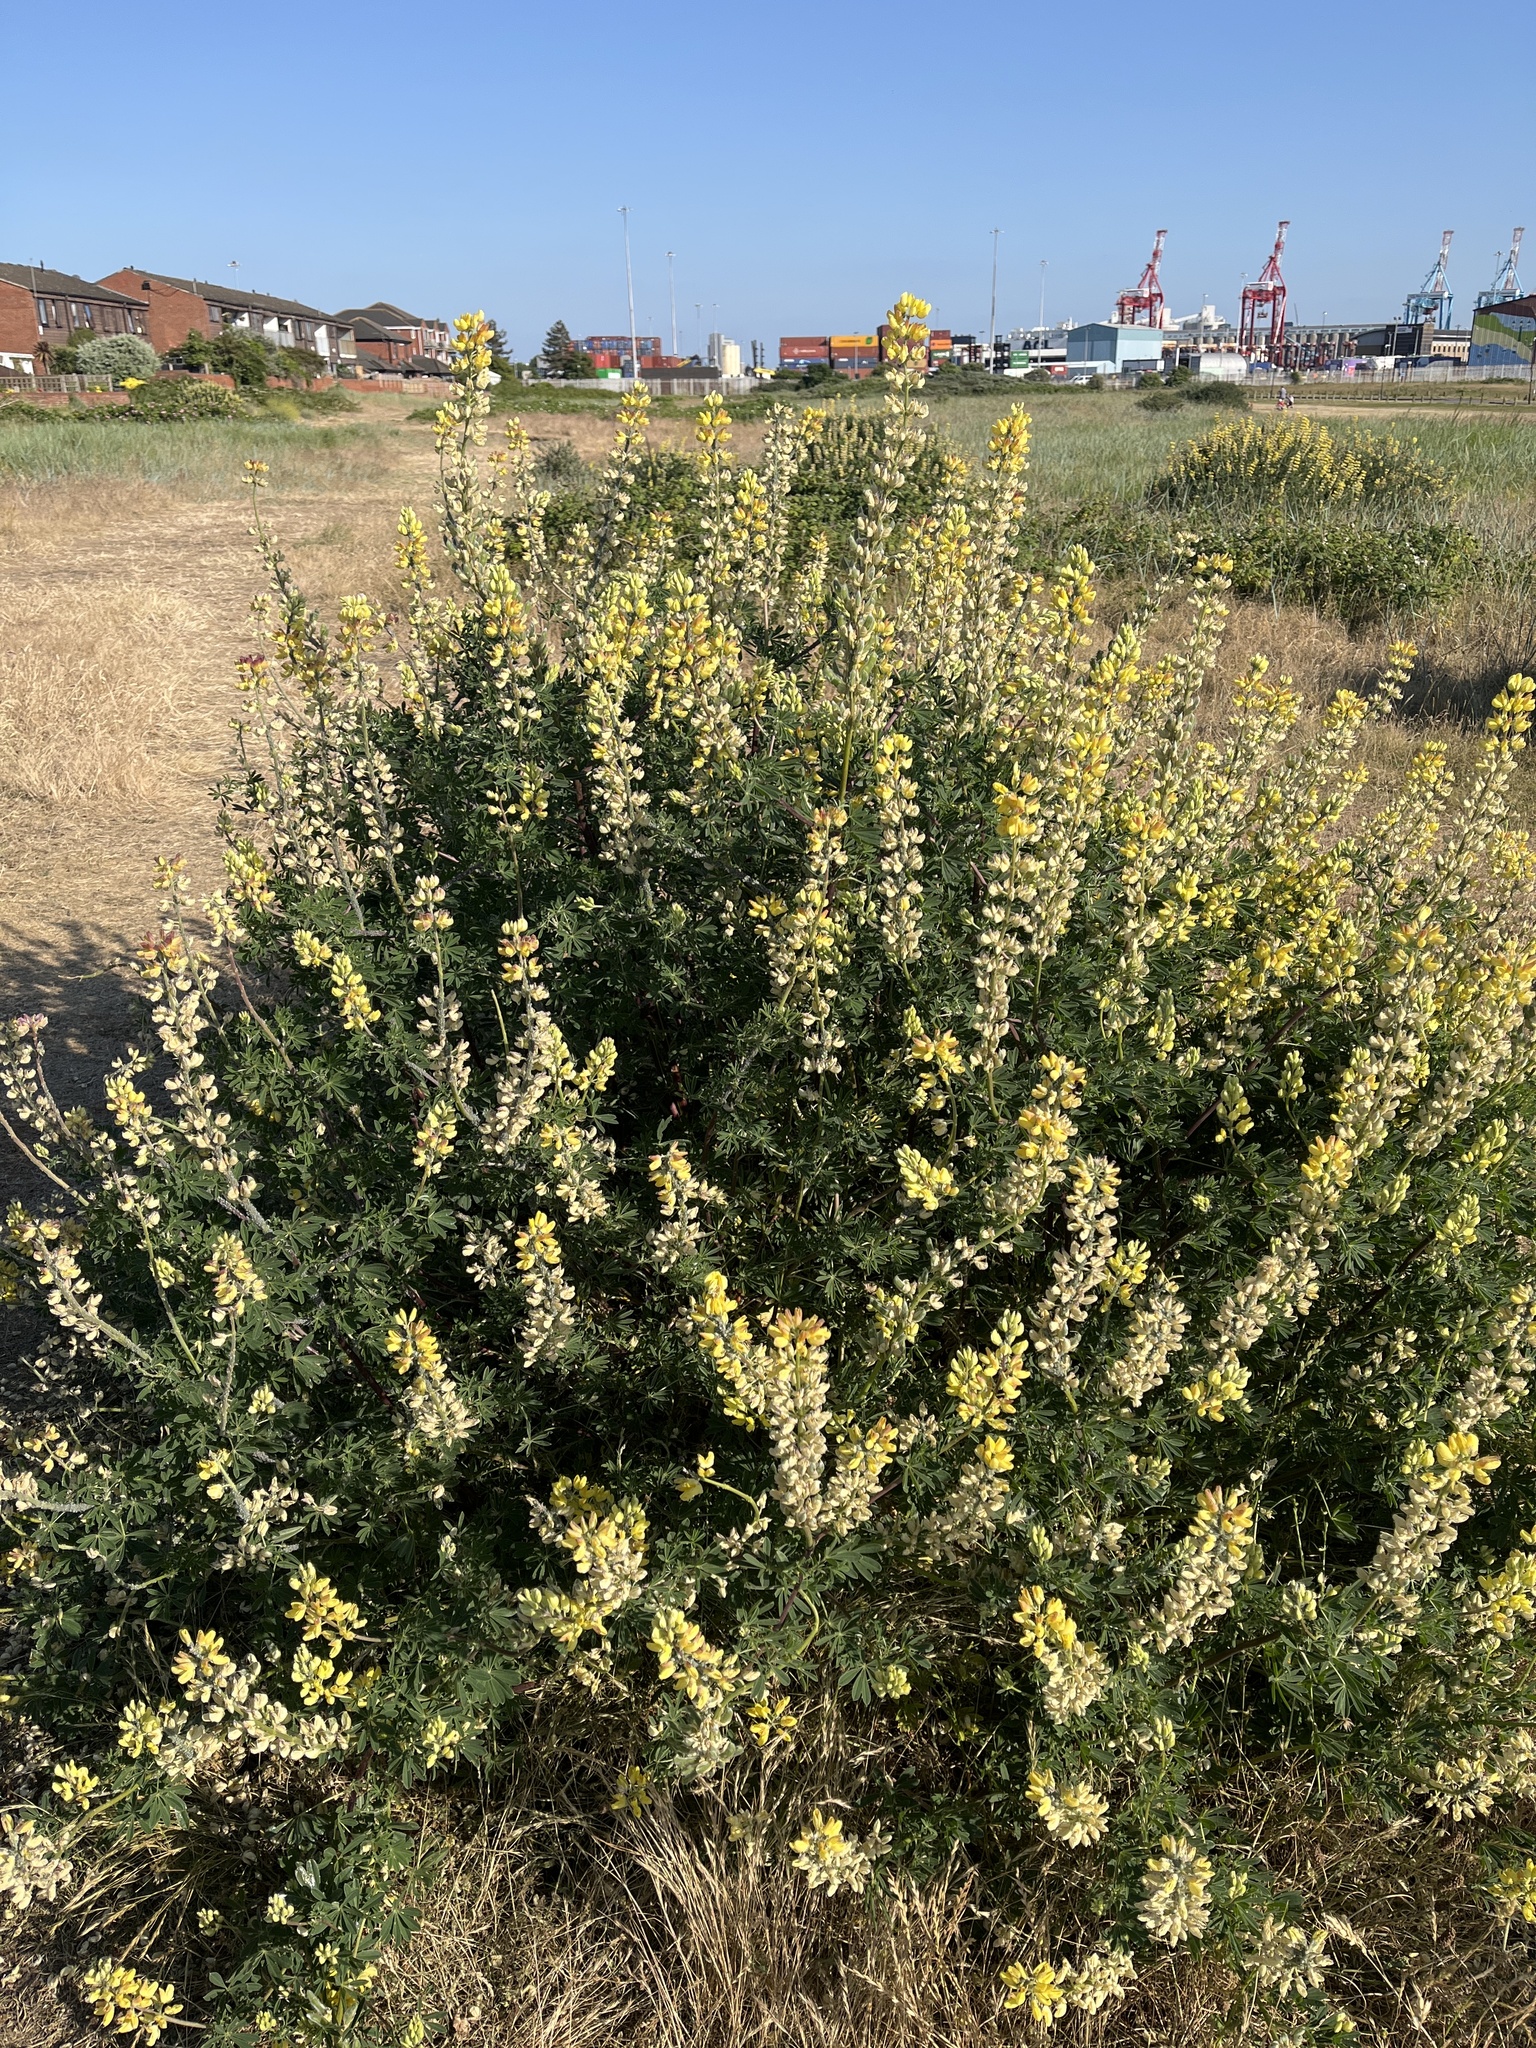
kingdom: Plantae
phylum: Tracheophyta
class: Magnoliopsida
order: Fabales
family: Fabaceae
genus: Lupinus
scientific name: Lupinus arboreus
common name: Yellow bush lupine
